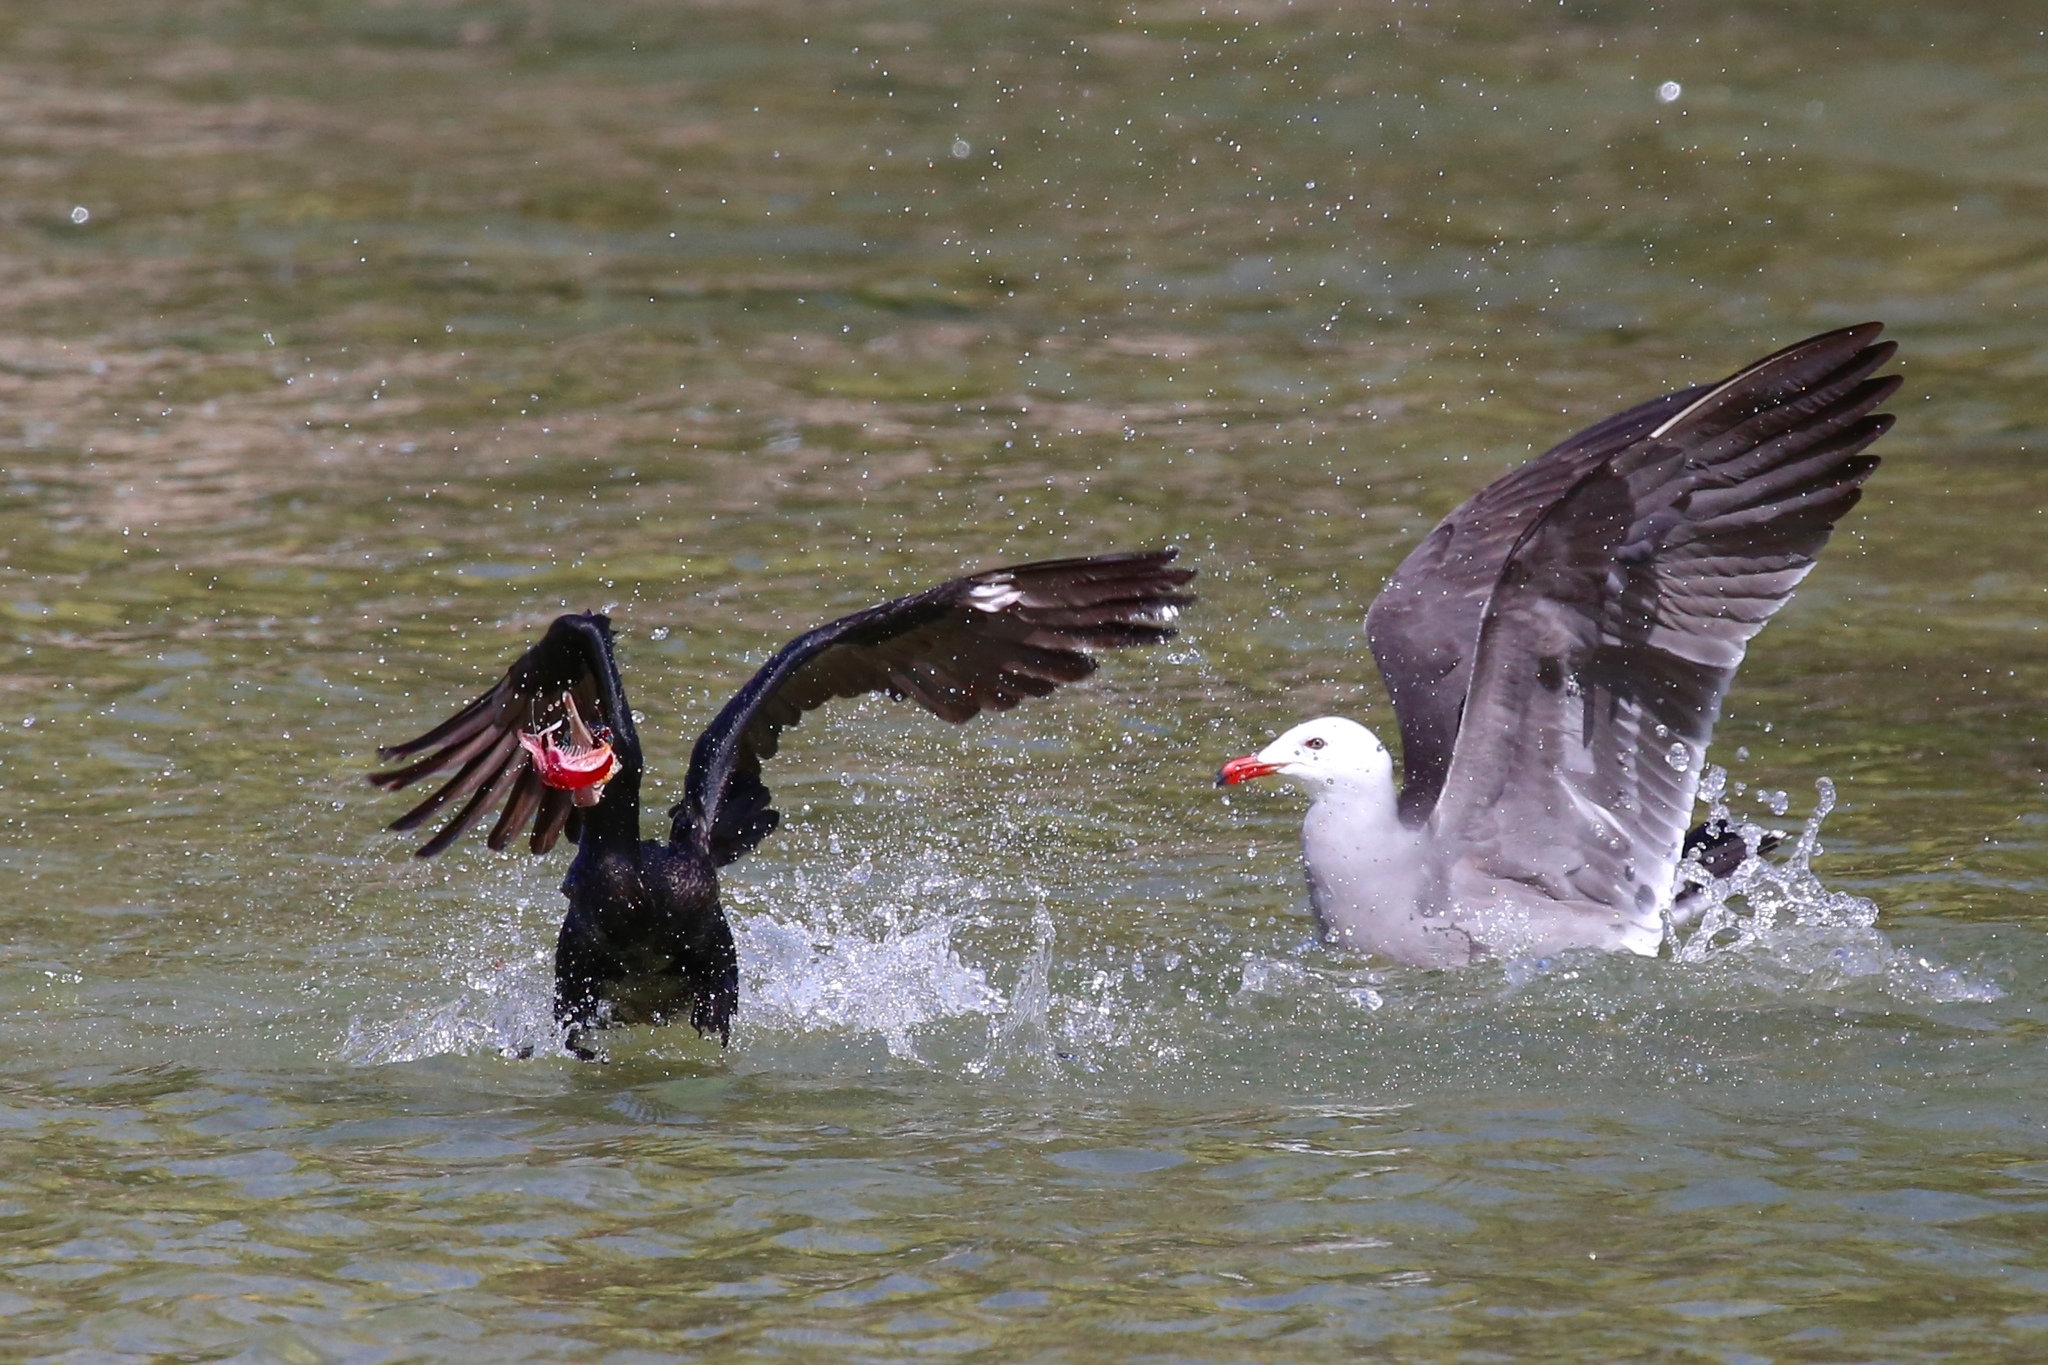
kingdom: Animalia
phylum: Chordata
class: Aves
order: Charadriiformes
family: Laridae
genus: Larus
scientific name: Larus heermanni
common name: Heermann's gull
